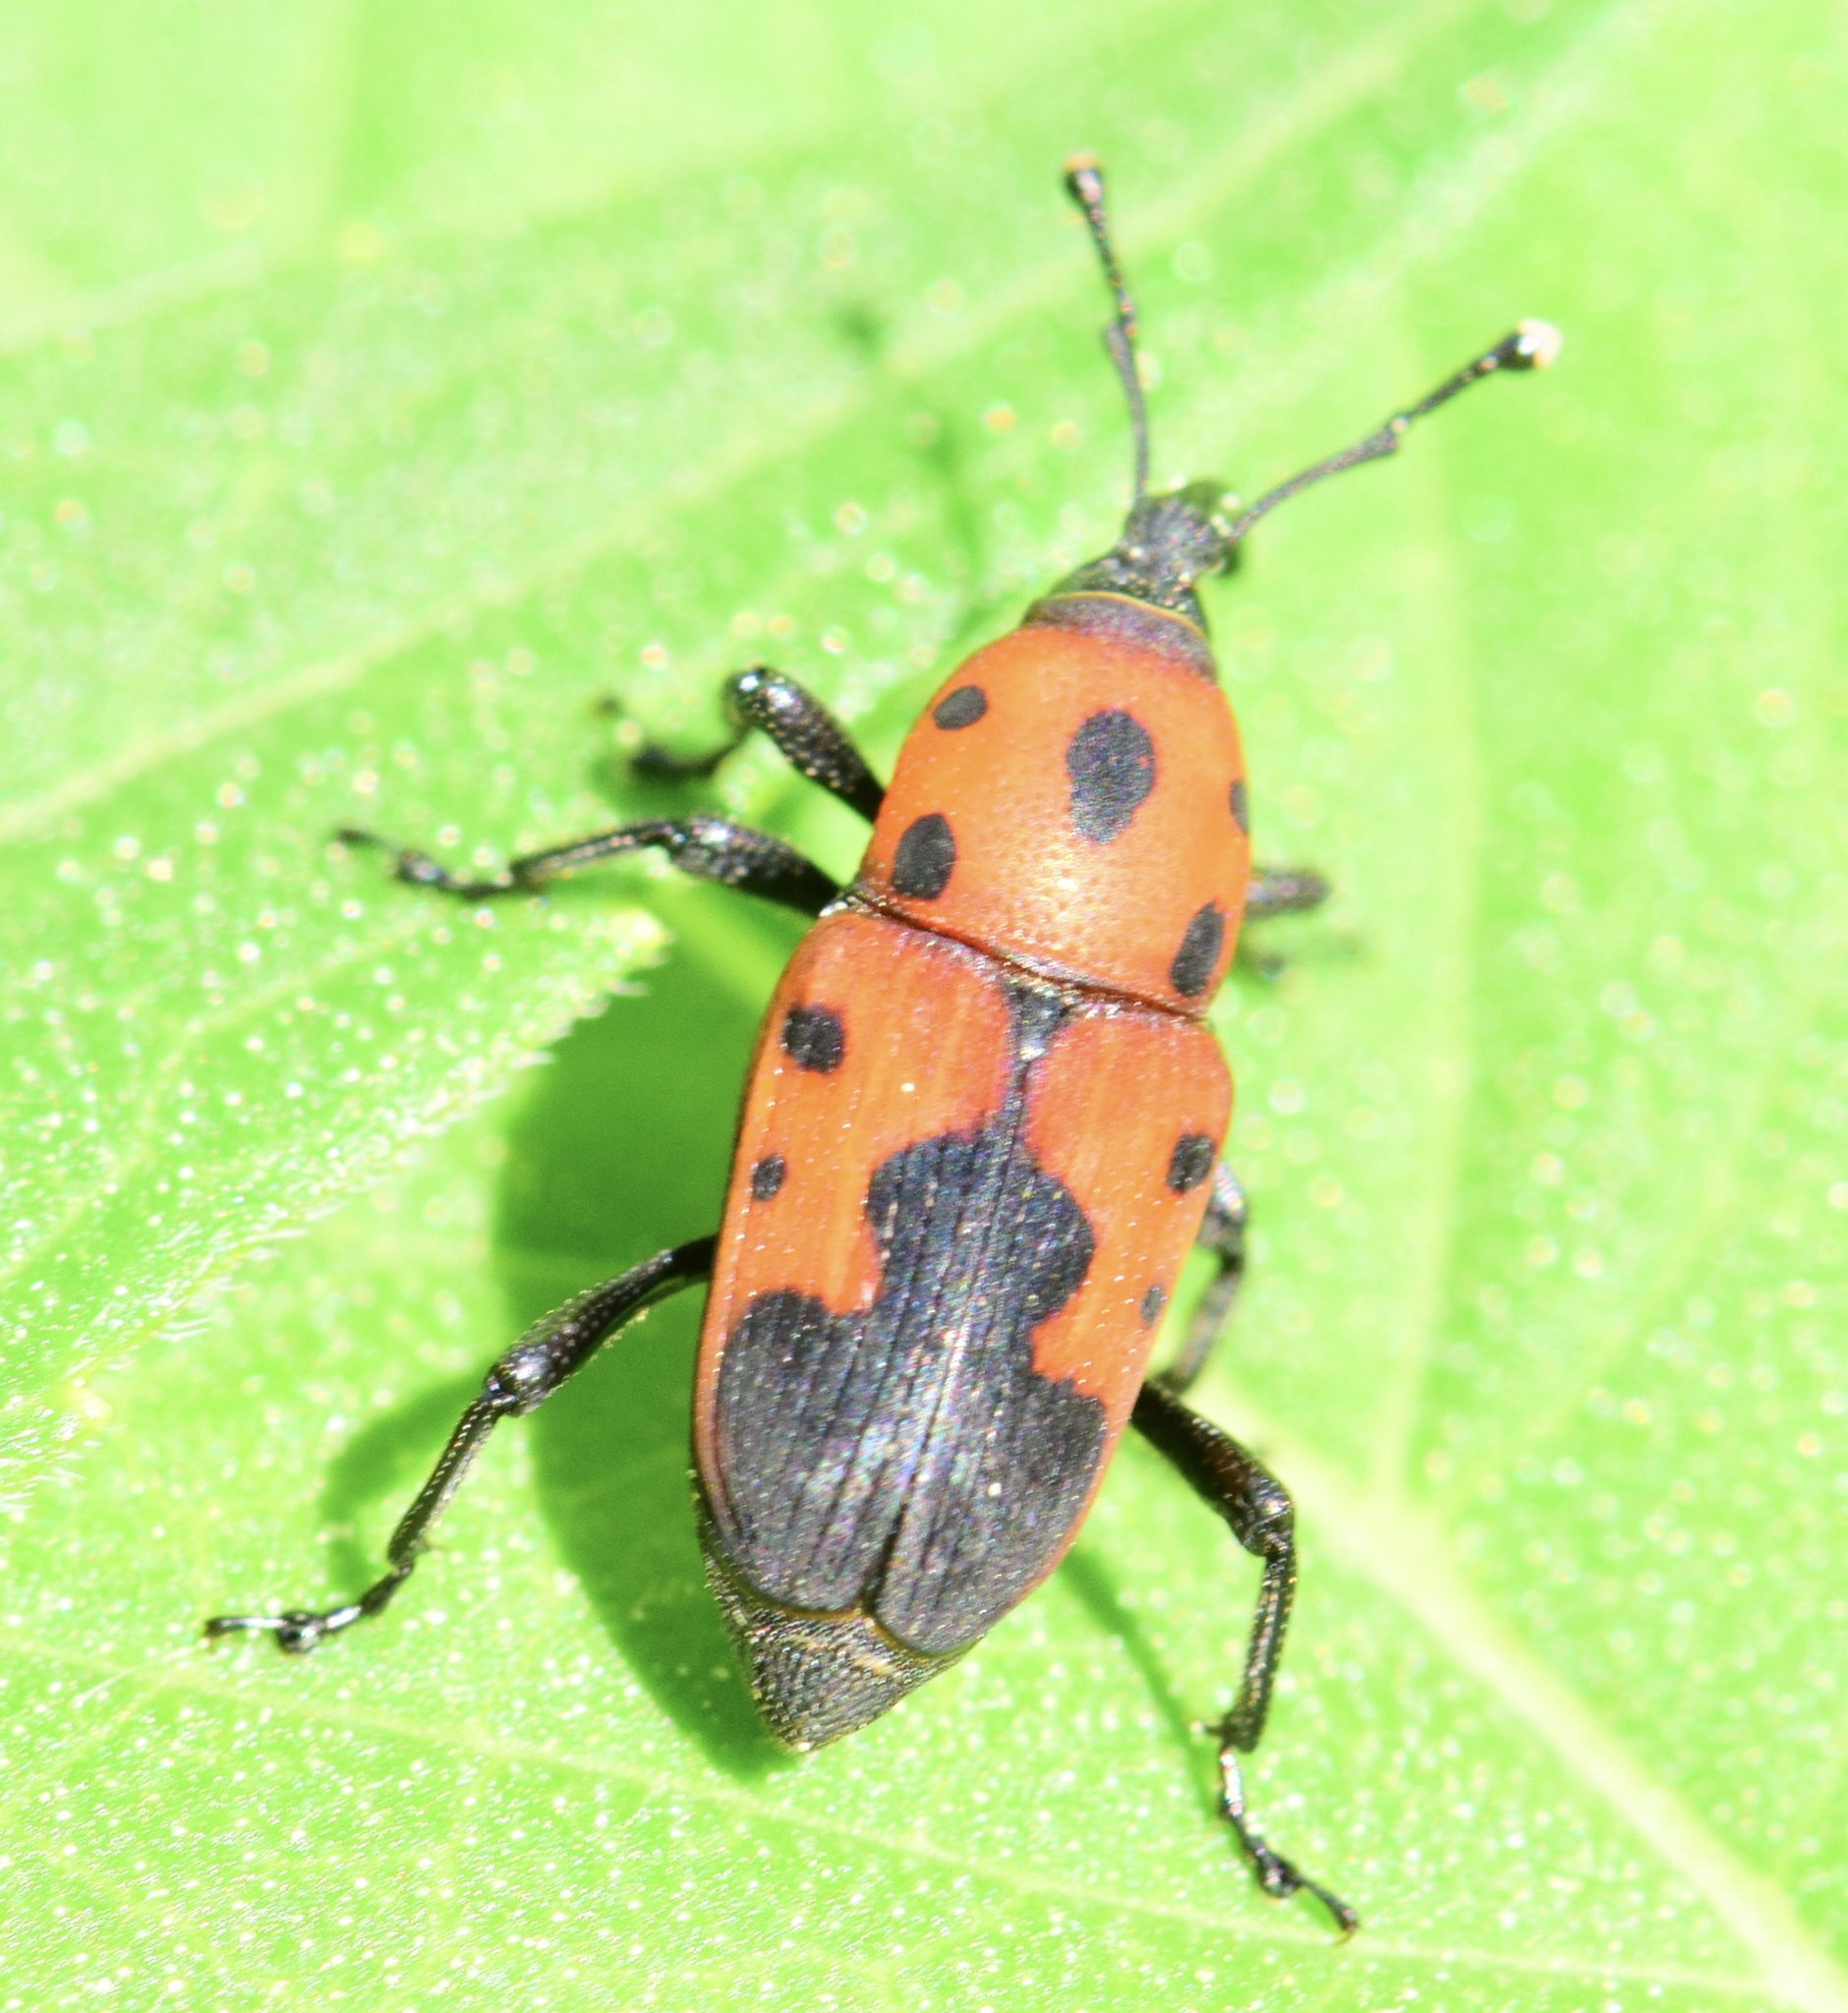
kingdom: Animalia
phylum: Arthropoda
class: Insecta
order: Coleoptera
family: Dryophthoridae
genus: Rhodobaenus
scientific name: Rhodobaenus quinquepunctatus
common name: Cocklebur weevil
